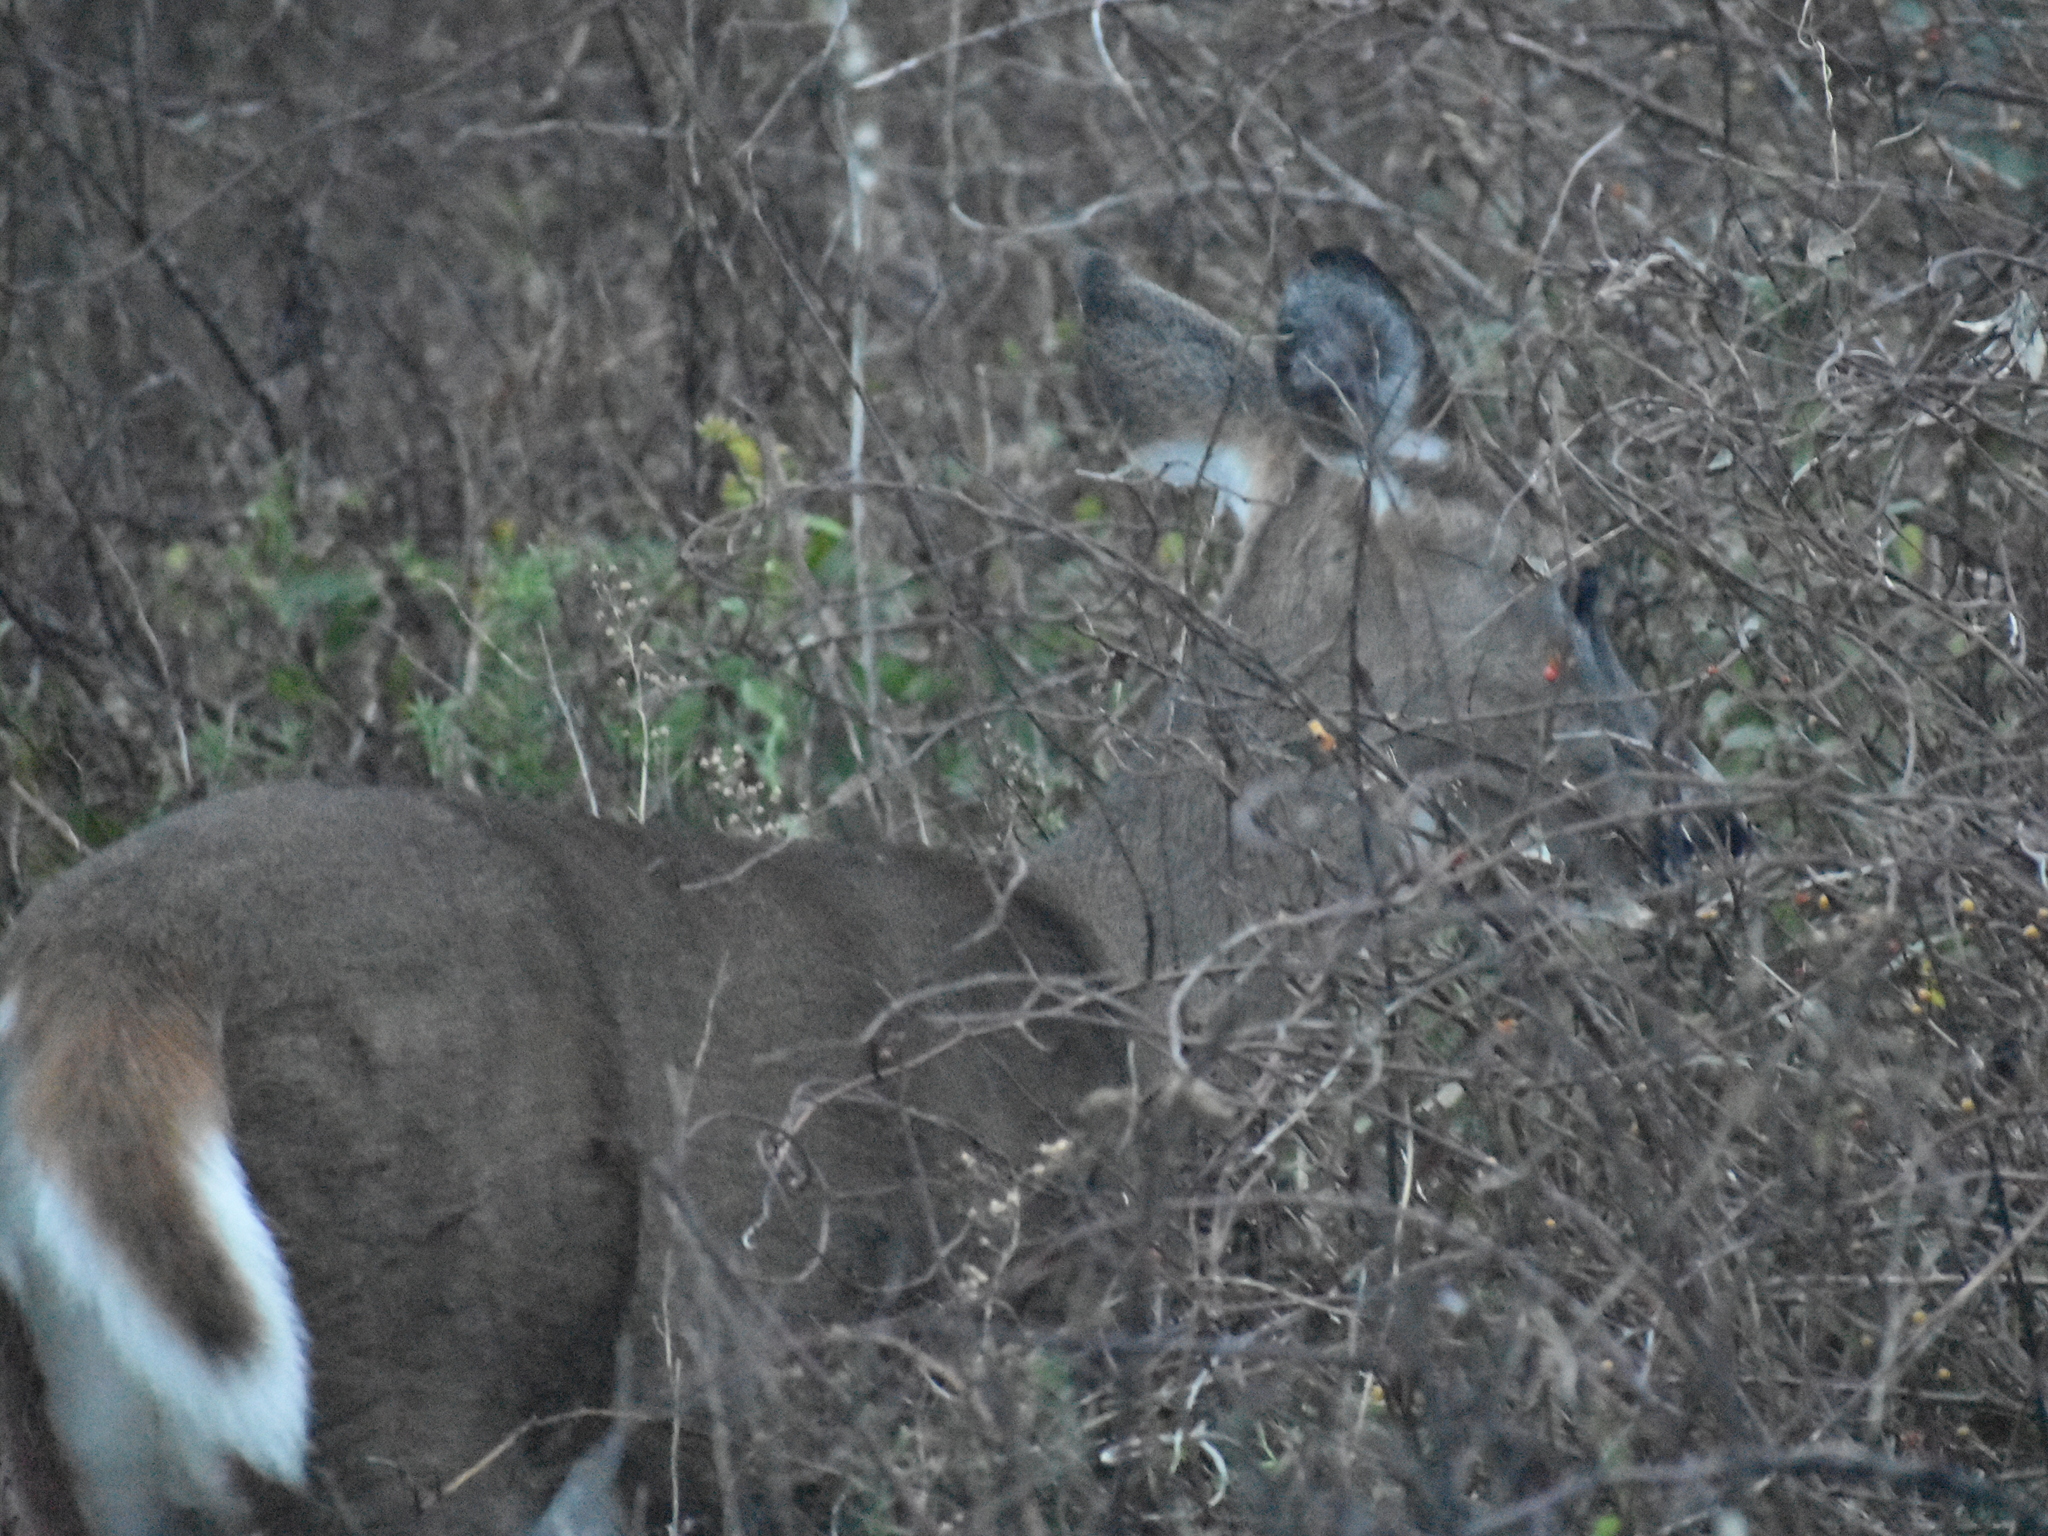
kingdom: Animalia
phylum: Chordata
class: Mammalia
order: Artiodactyla
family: Cervidae
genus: Odocoileus
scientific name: Odocoileus virginianus
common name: White-tailed deer
